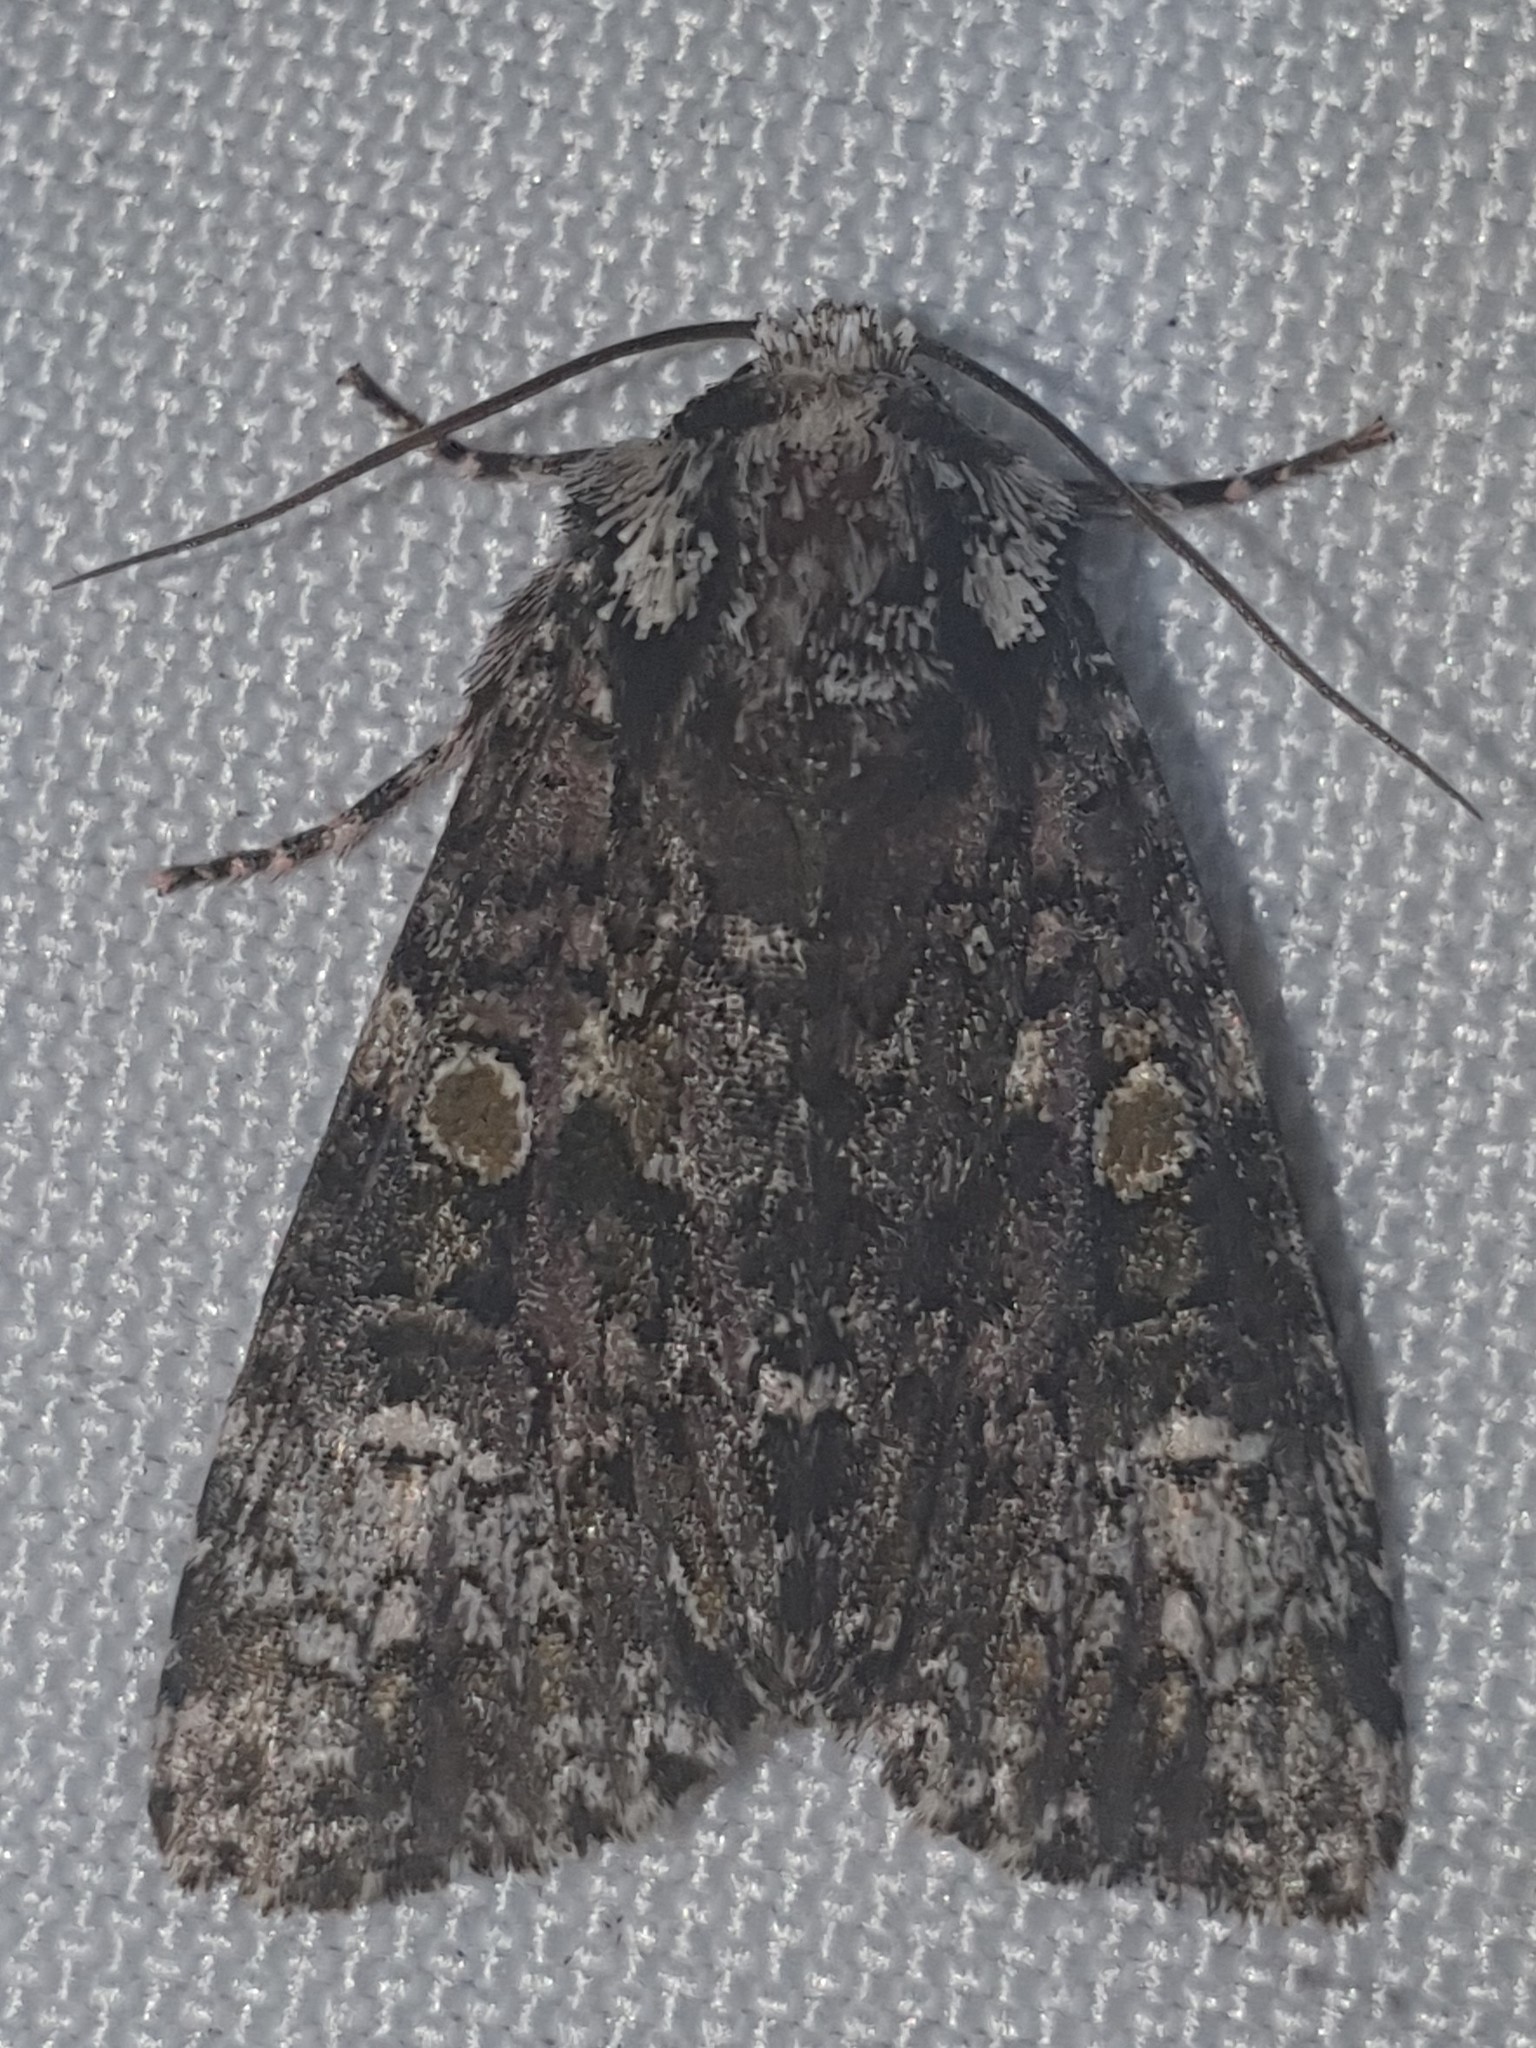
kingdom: Animalia
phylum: Arthropoda
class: Insecta
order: Lepidoptera
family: Noctuidae
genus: Craniophora
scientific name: Craniophora ligustri
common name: Coronet
